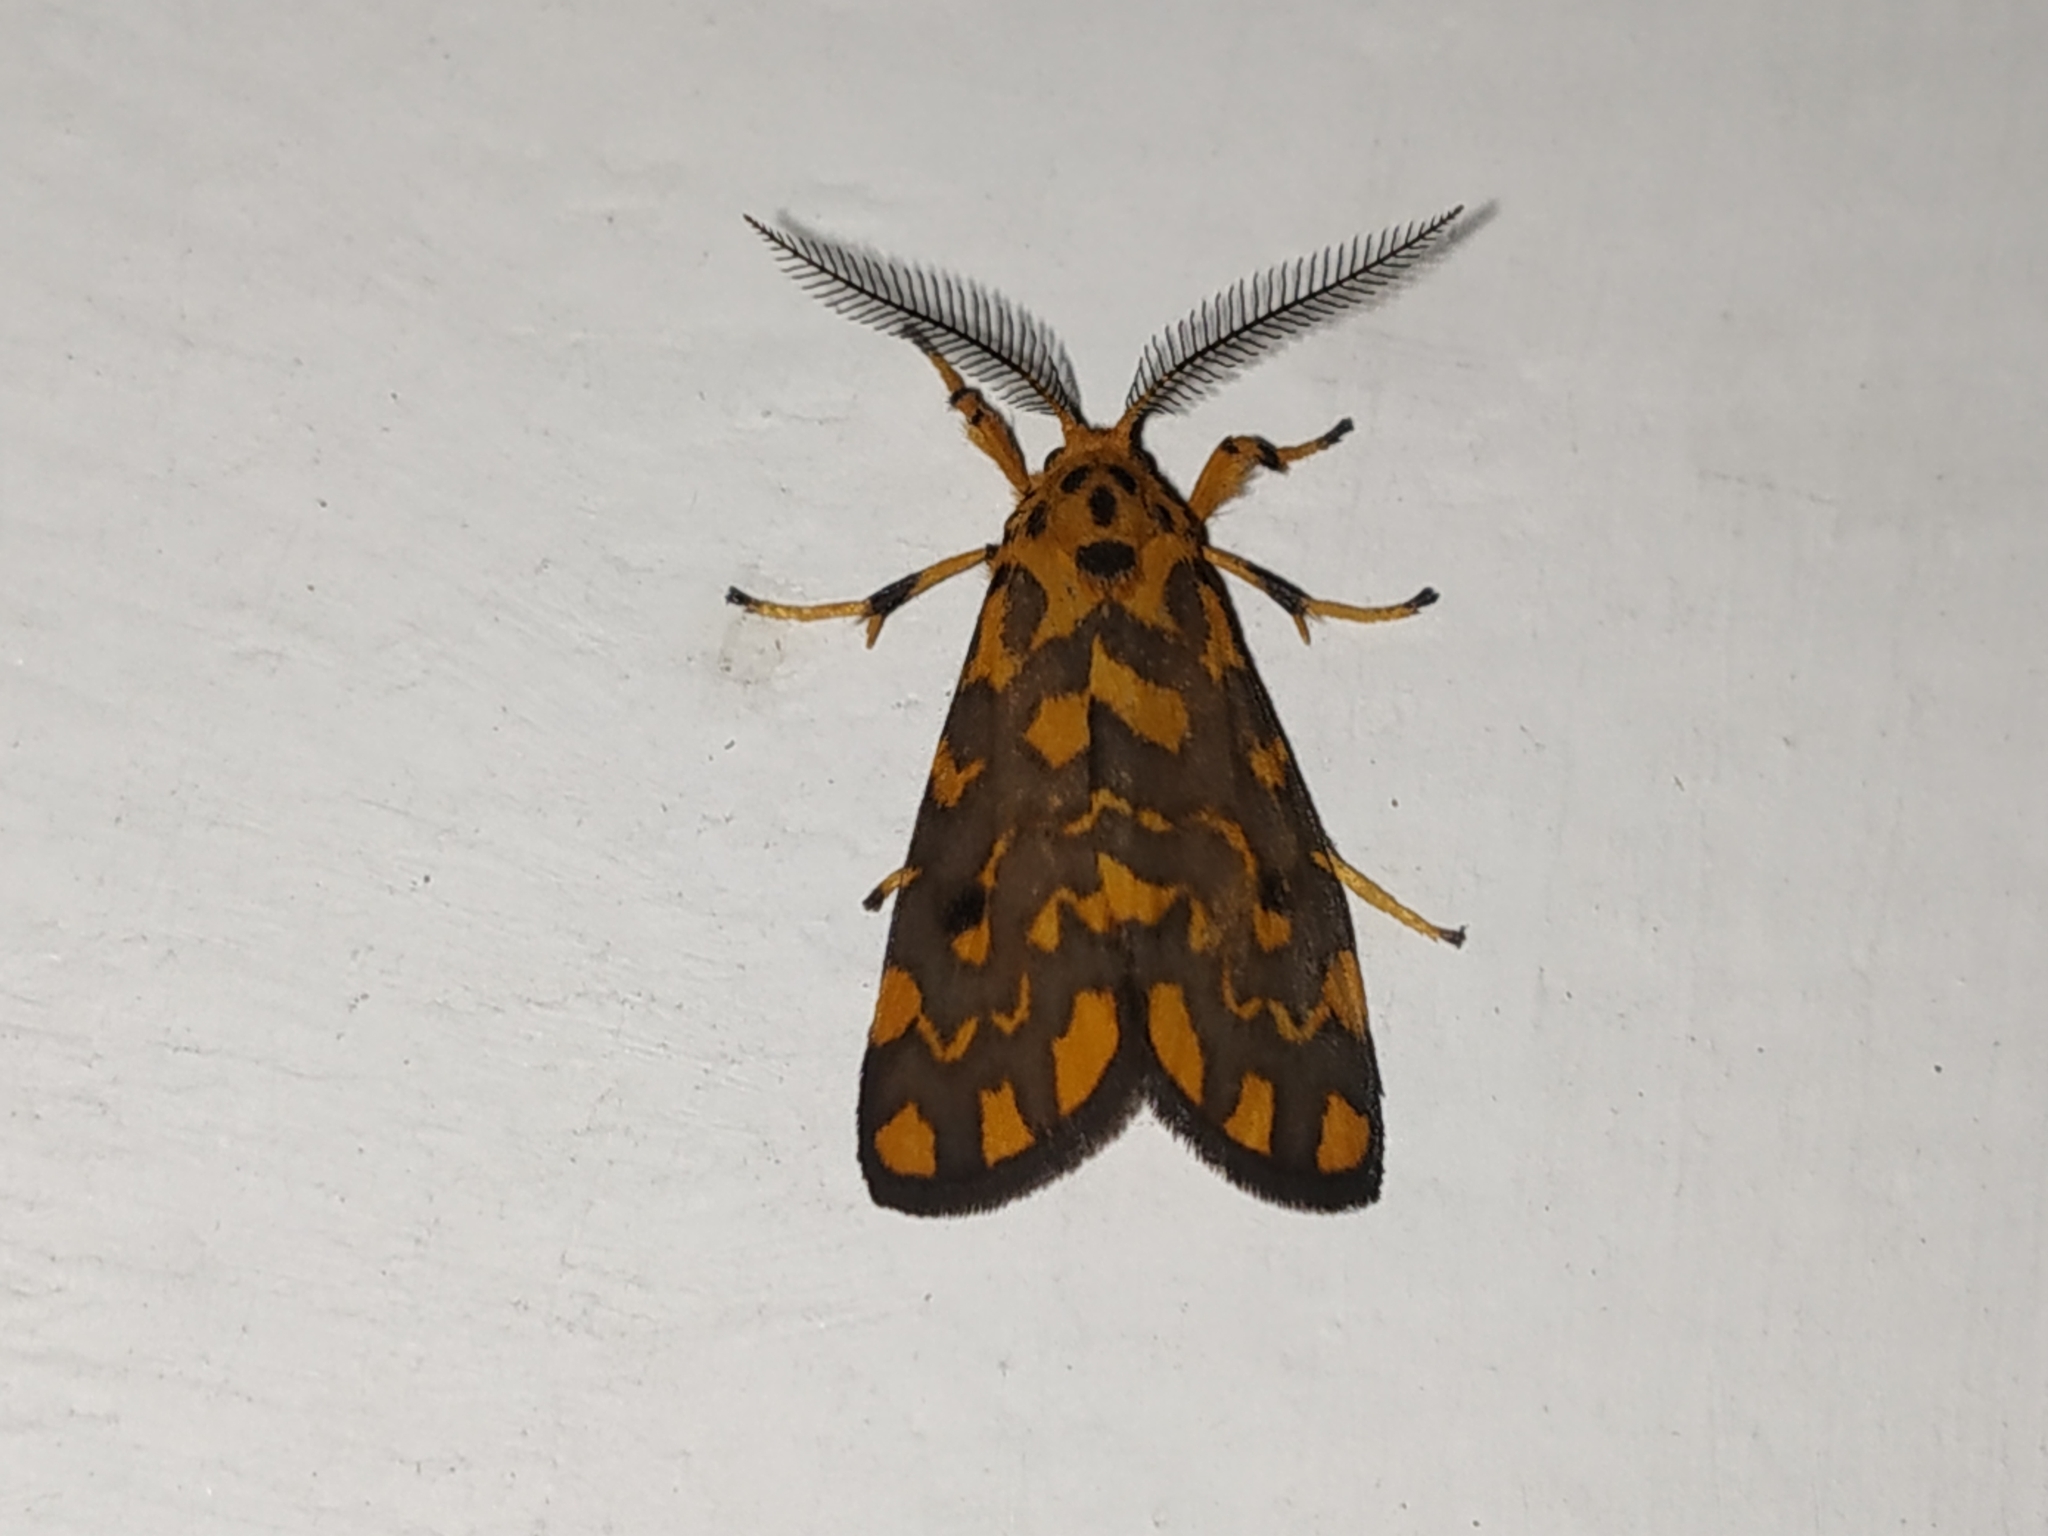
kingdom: Animalia
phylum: Arthropoda
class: Insecta
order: Lepidoptera
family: Erebidae
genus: Nepita
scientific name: Nepita conferta
